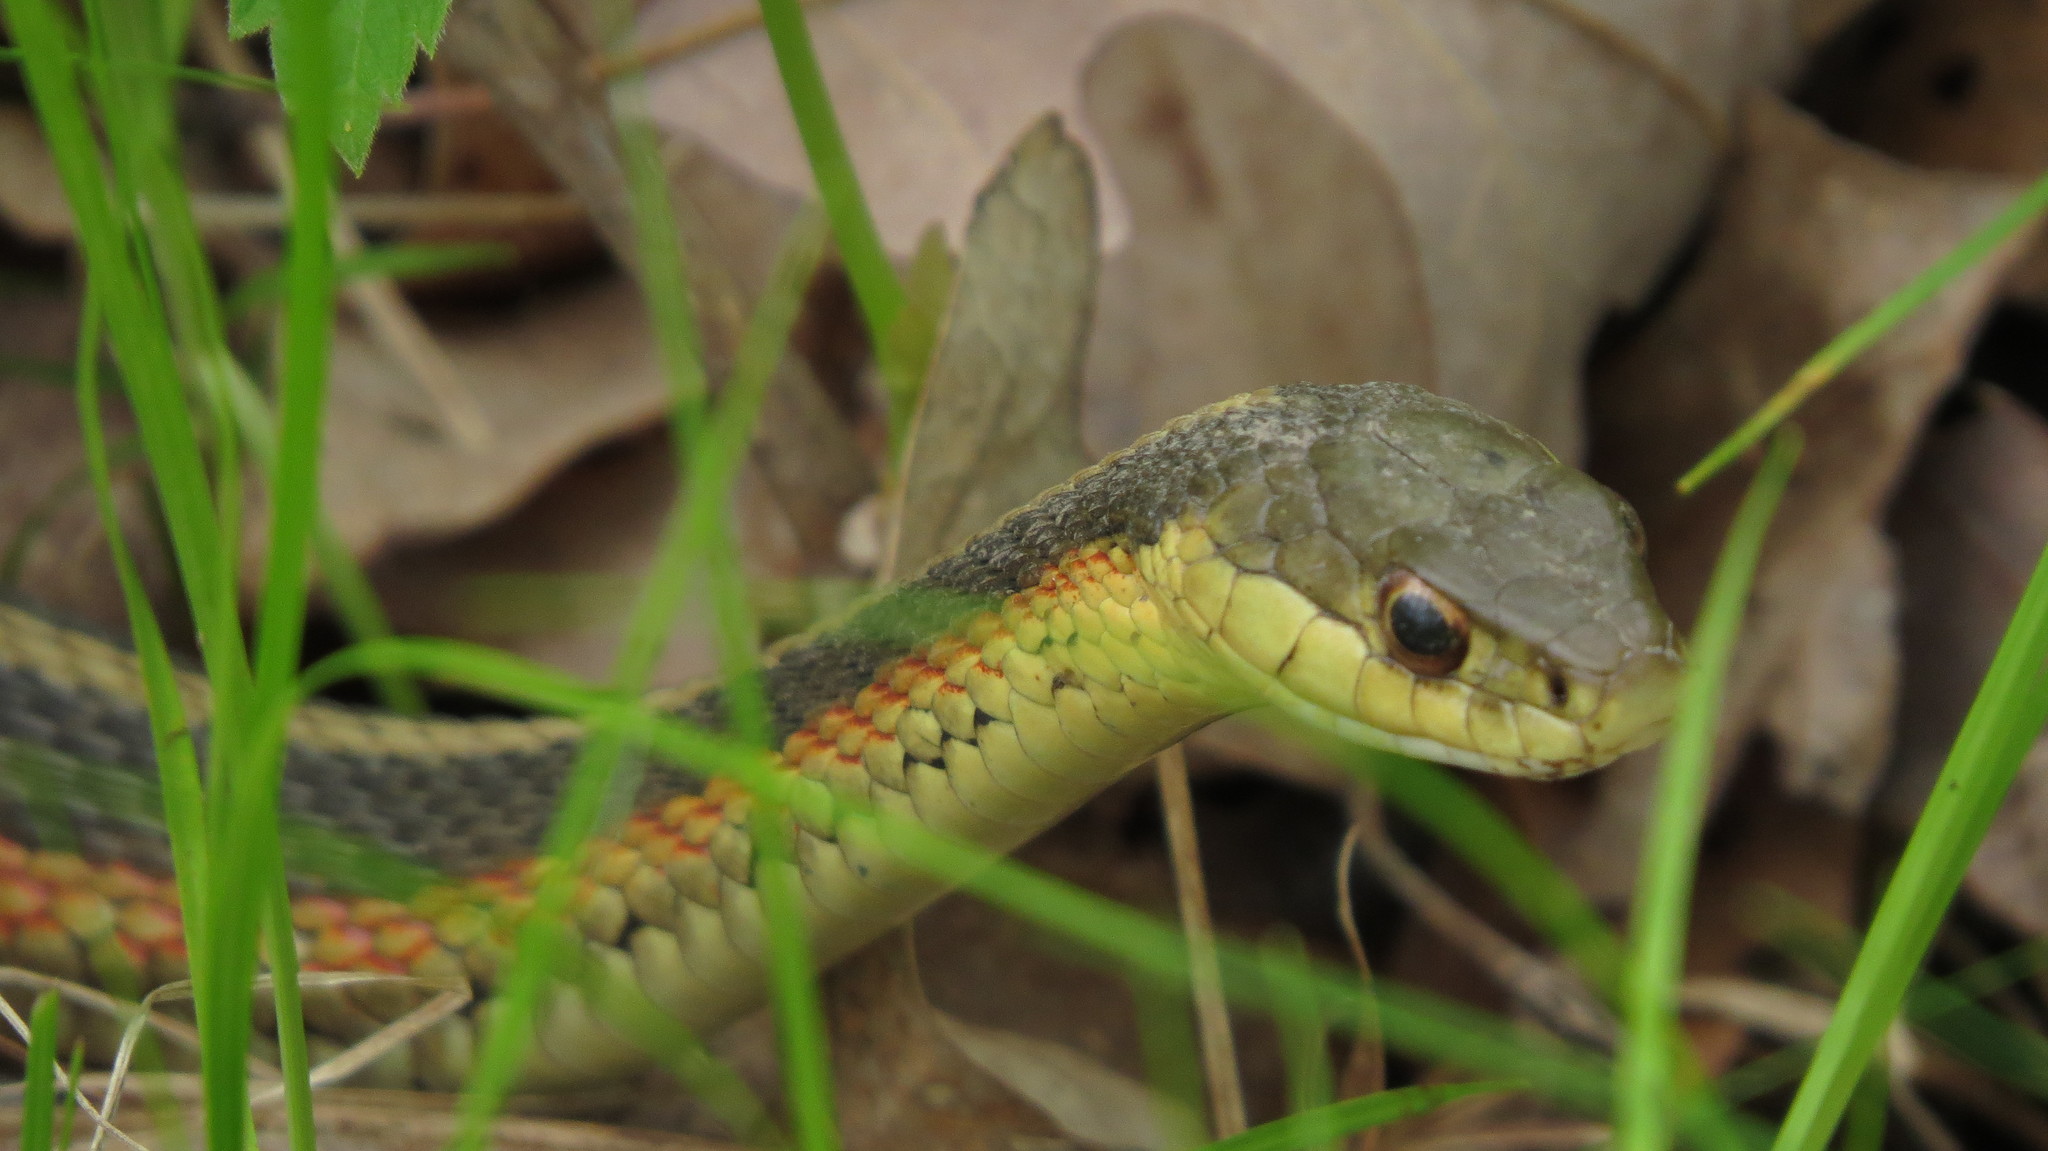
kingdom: Animalia
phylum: Chordata
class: Squamata
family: Colubridae
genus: Thamnophis
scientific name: Thamnophis sirtalis
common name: Common garter snake
